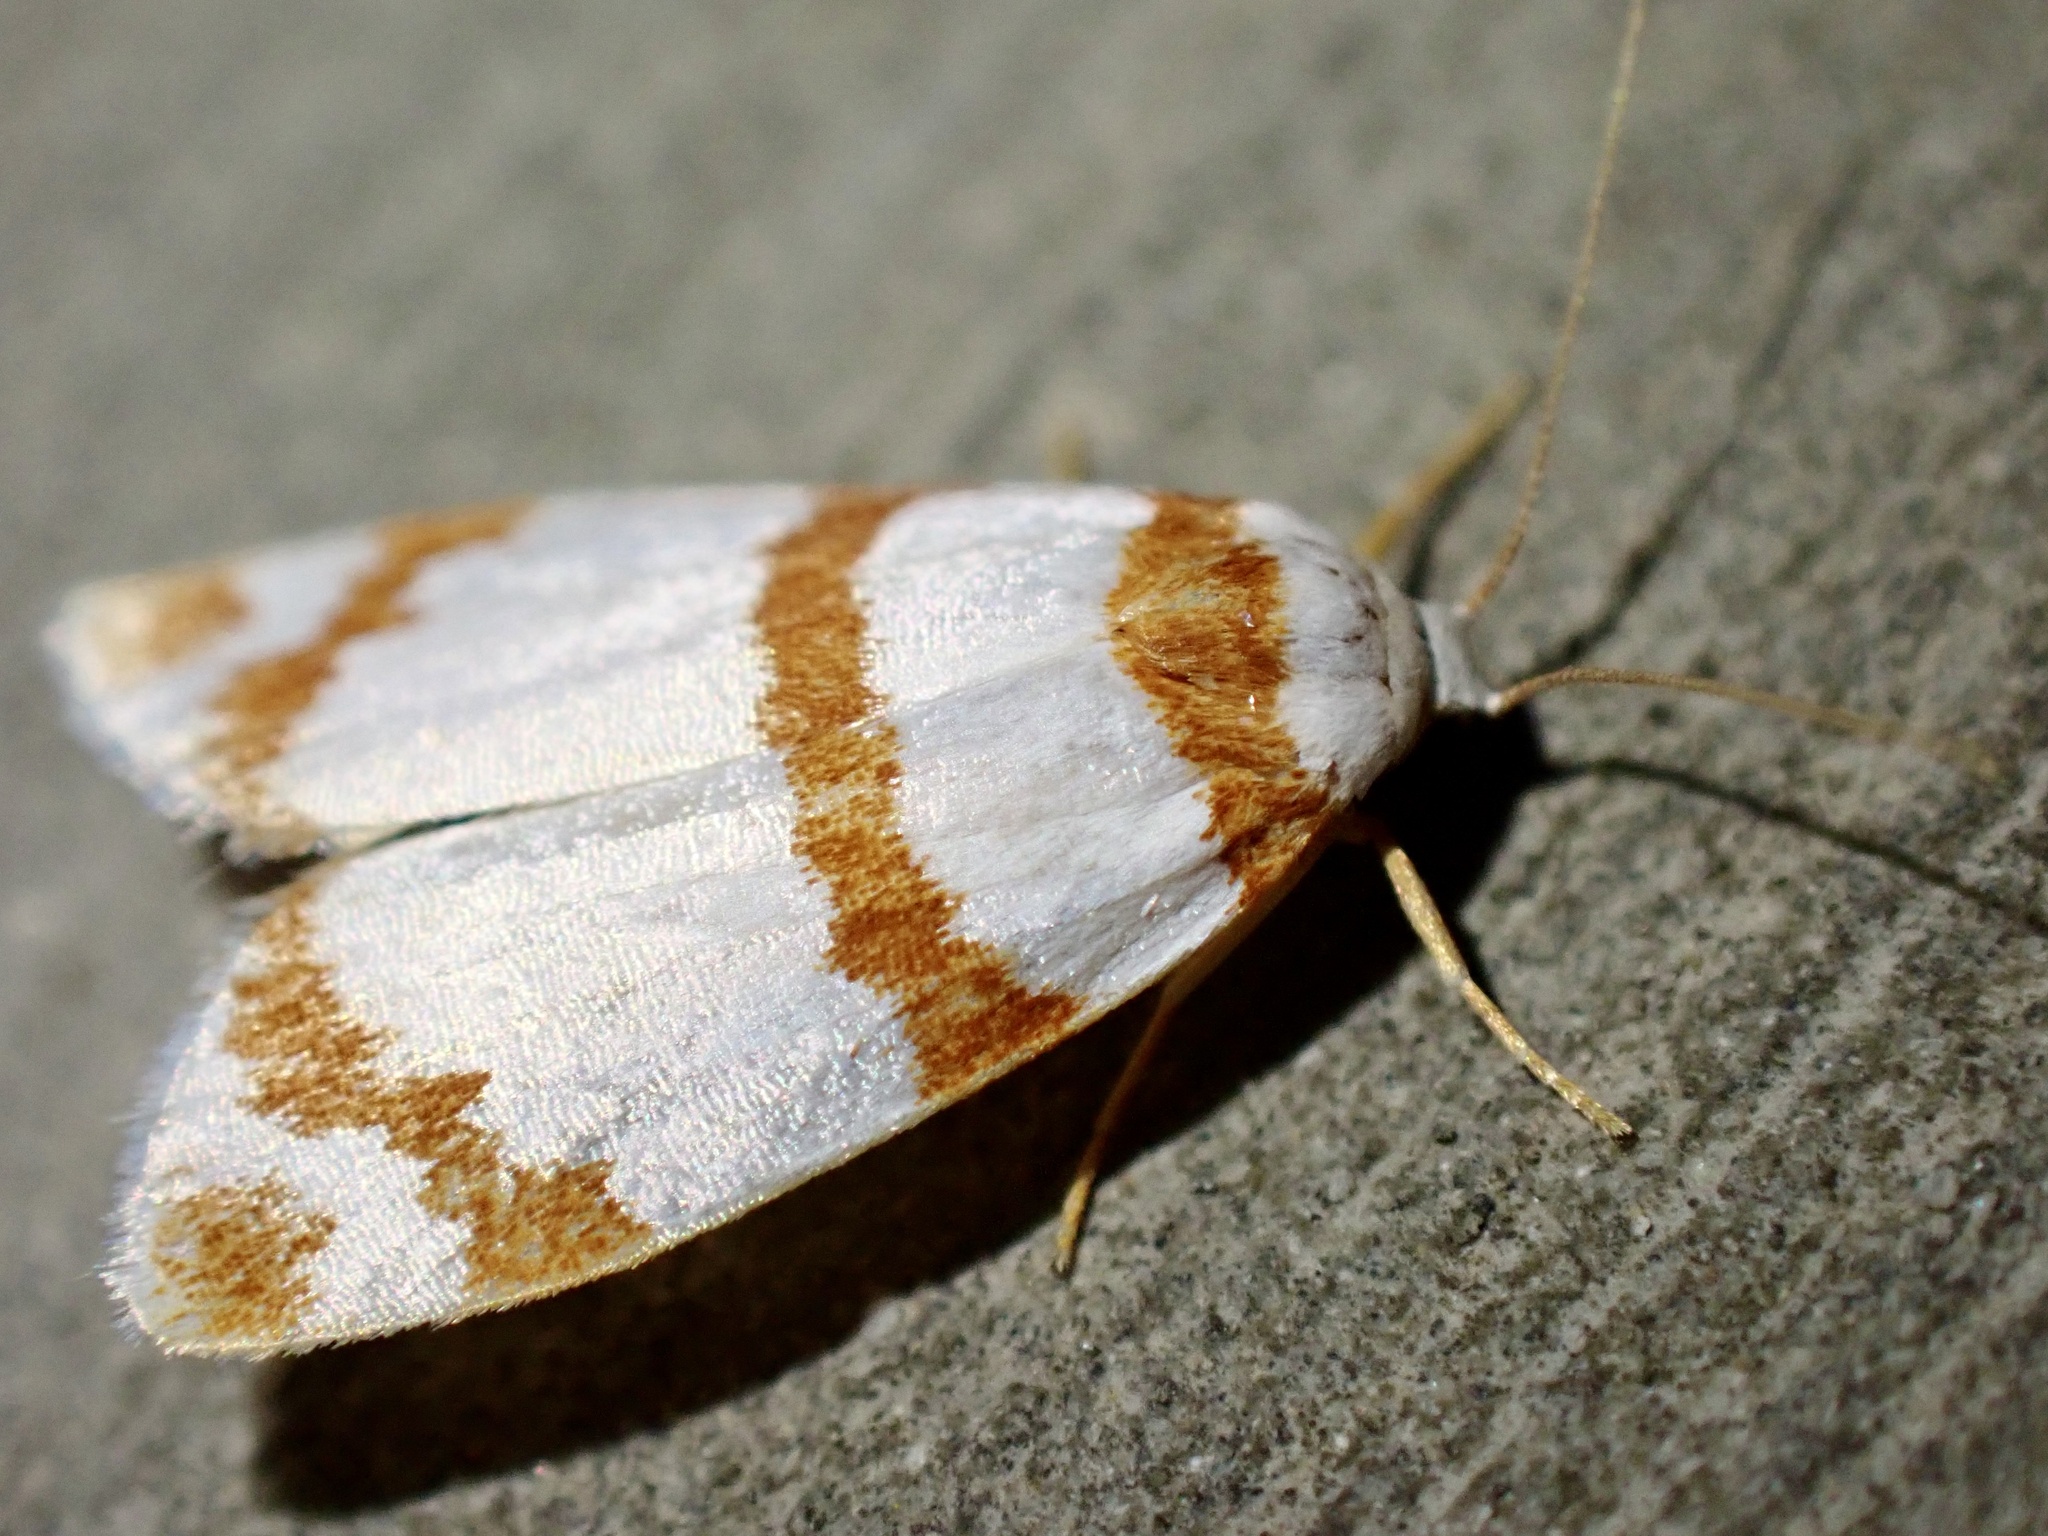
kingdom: Animalia
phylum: Arthropoda
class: Insecta
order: Lepidoptera
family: Erebidae
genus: Thermograpta
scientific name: Thermograpta rufizonata
